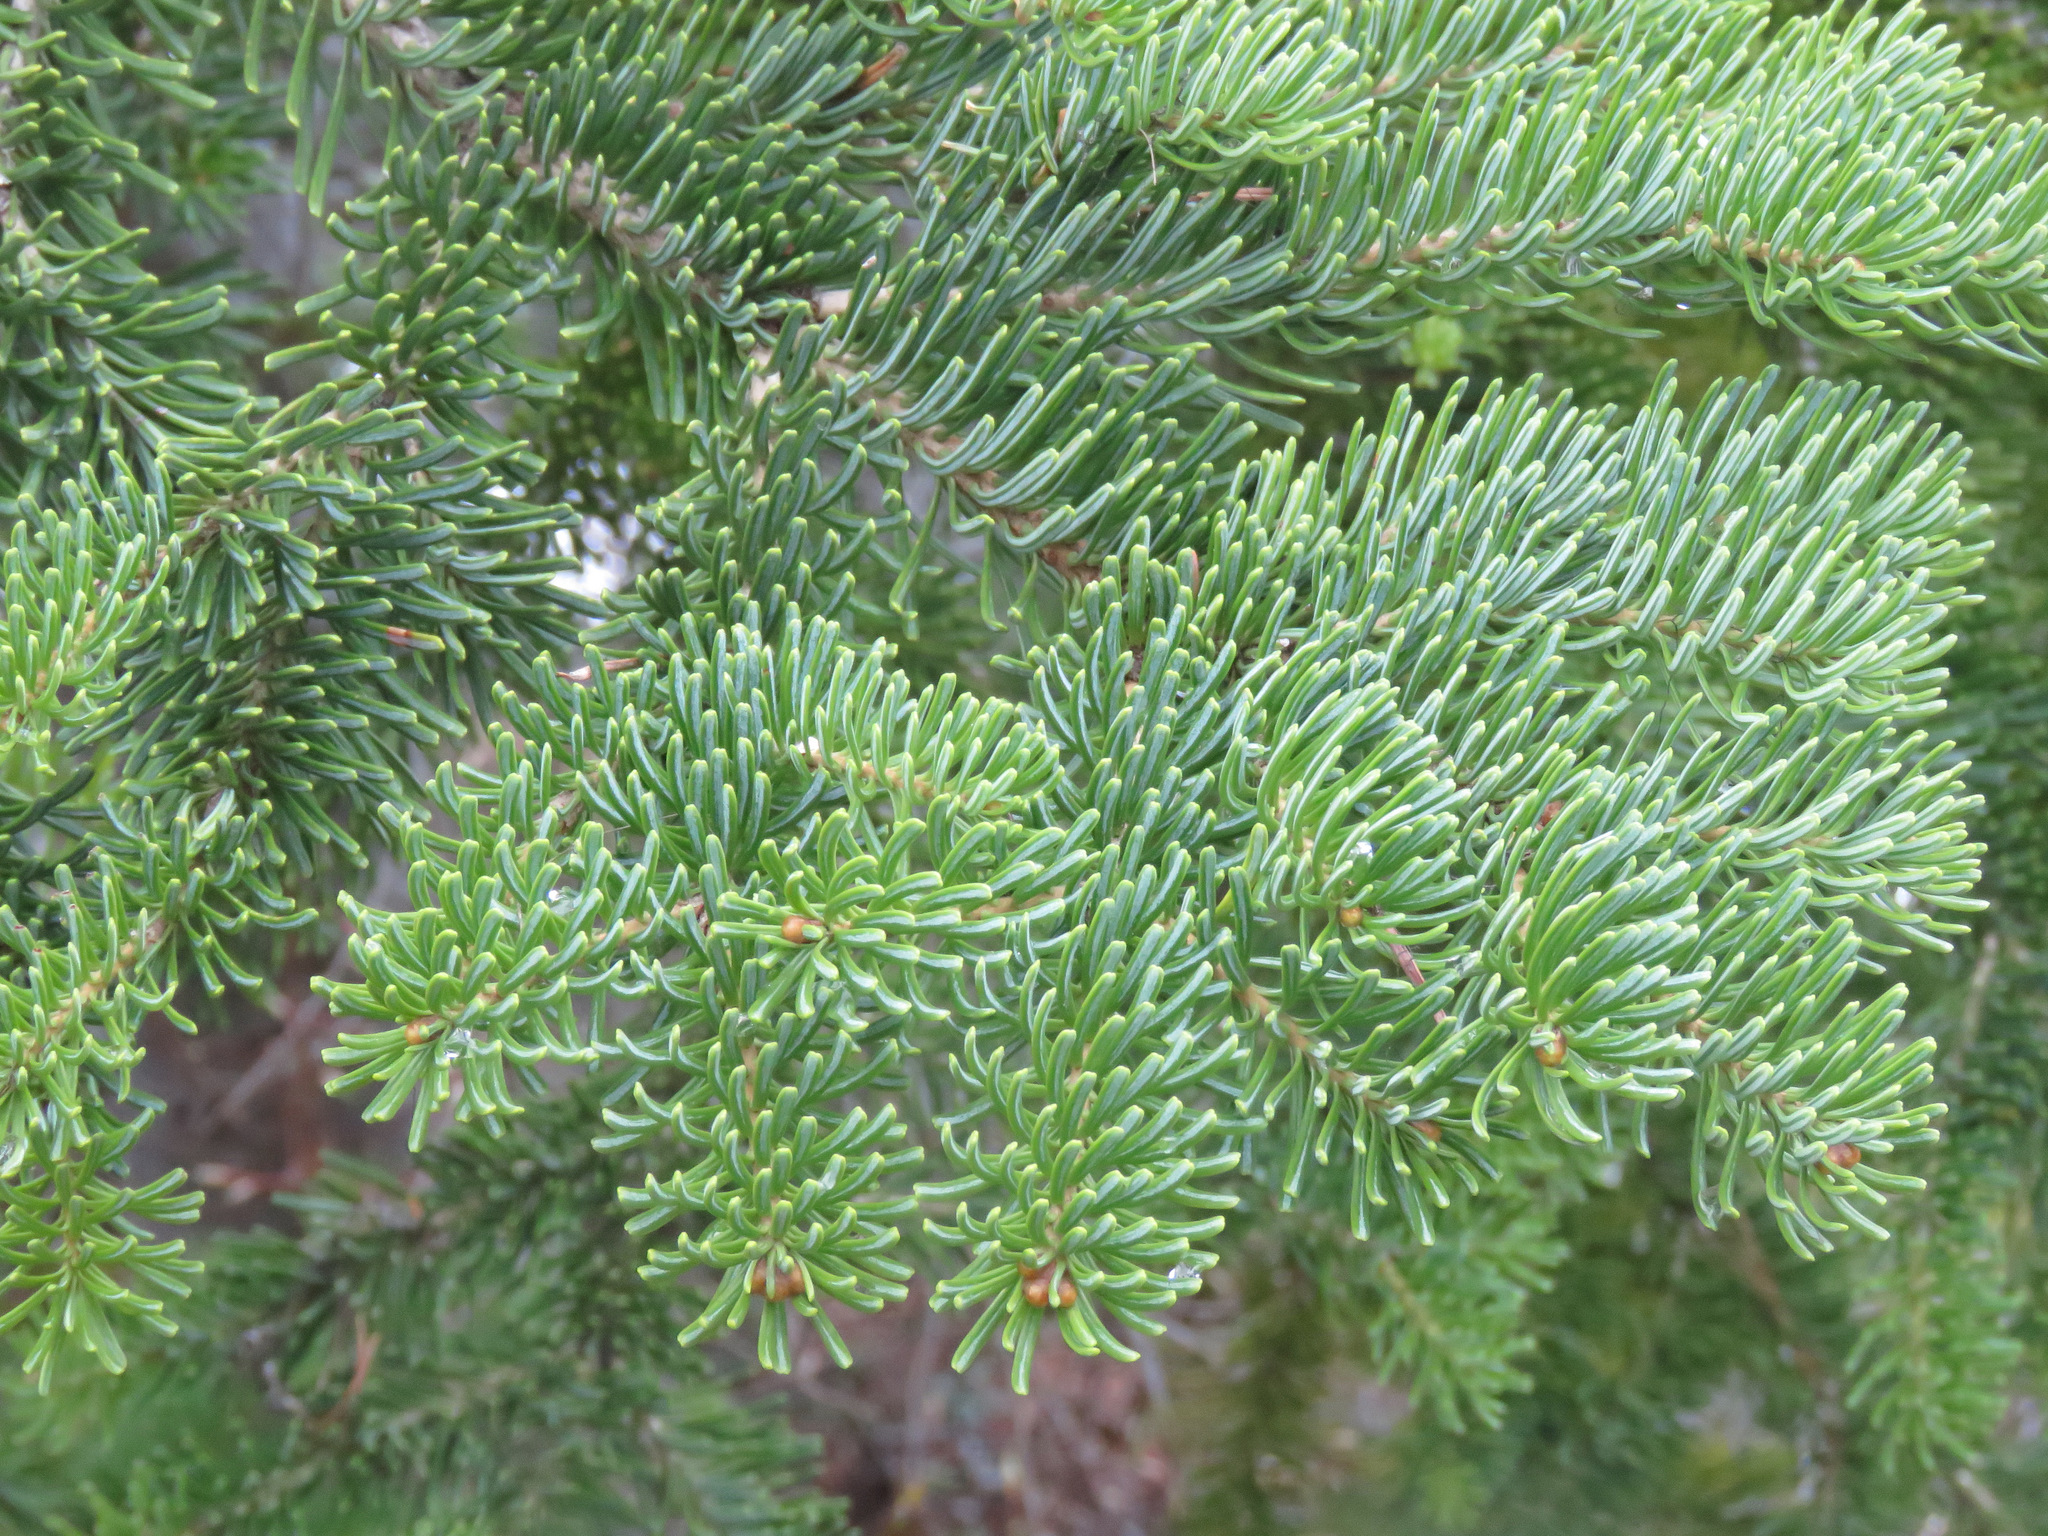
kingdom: Plantae
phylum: Tracheophyta
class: Pinopsida
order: Pinales
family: Pinaceae
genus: Abies
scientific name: Abies lasiocarpa
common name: Subalpine fir
